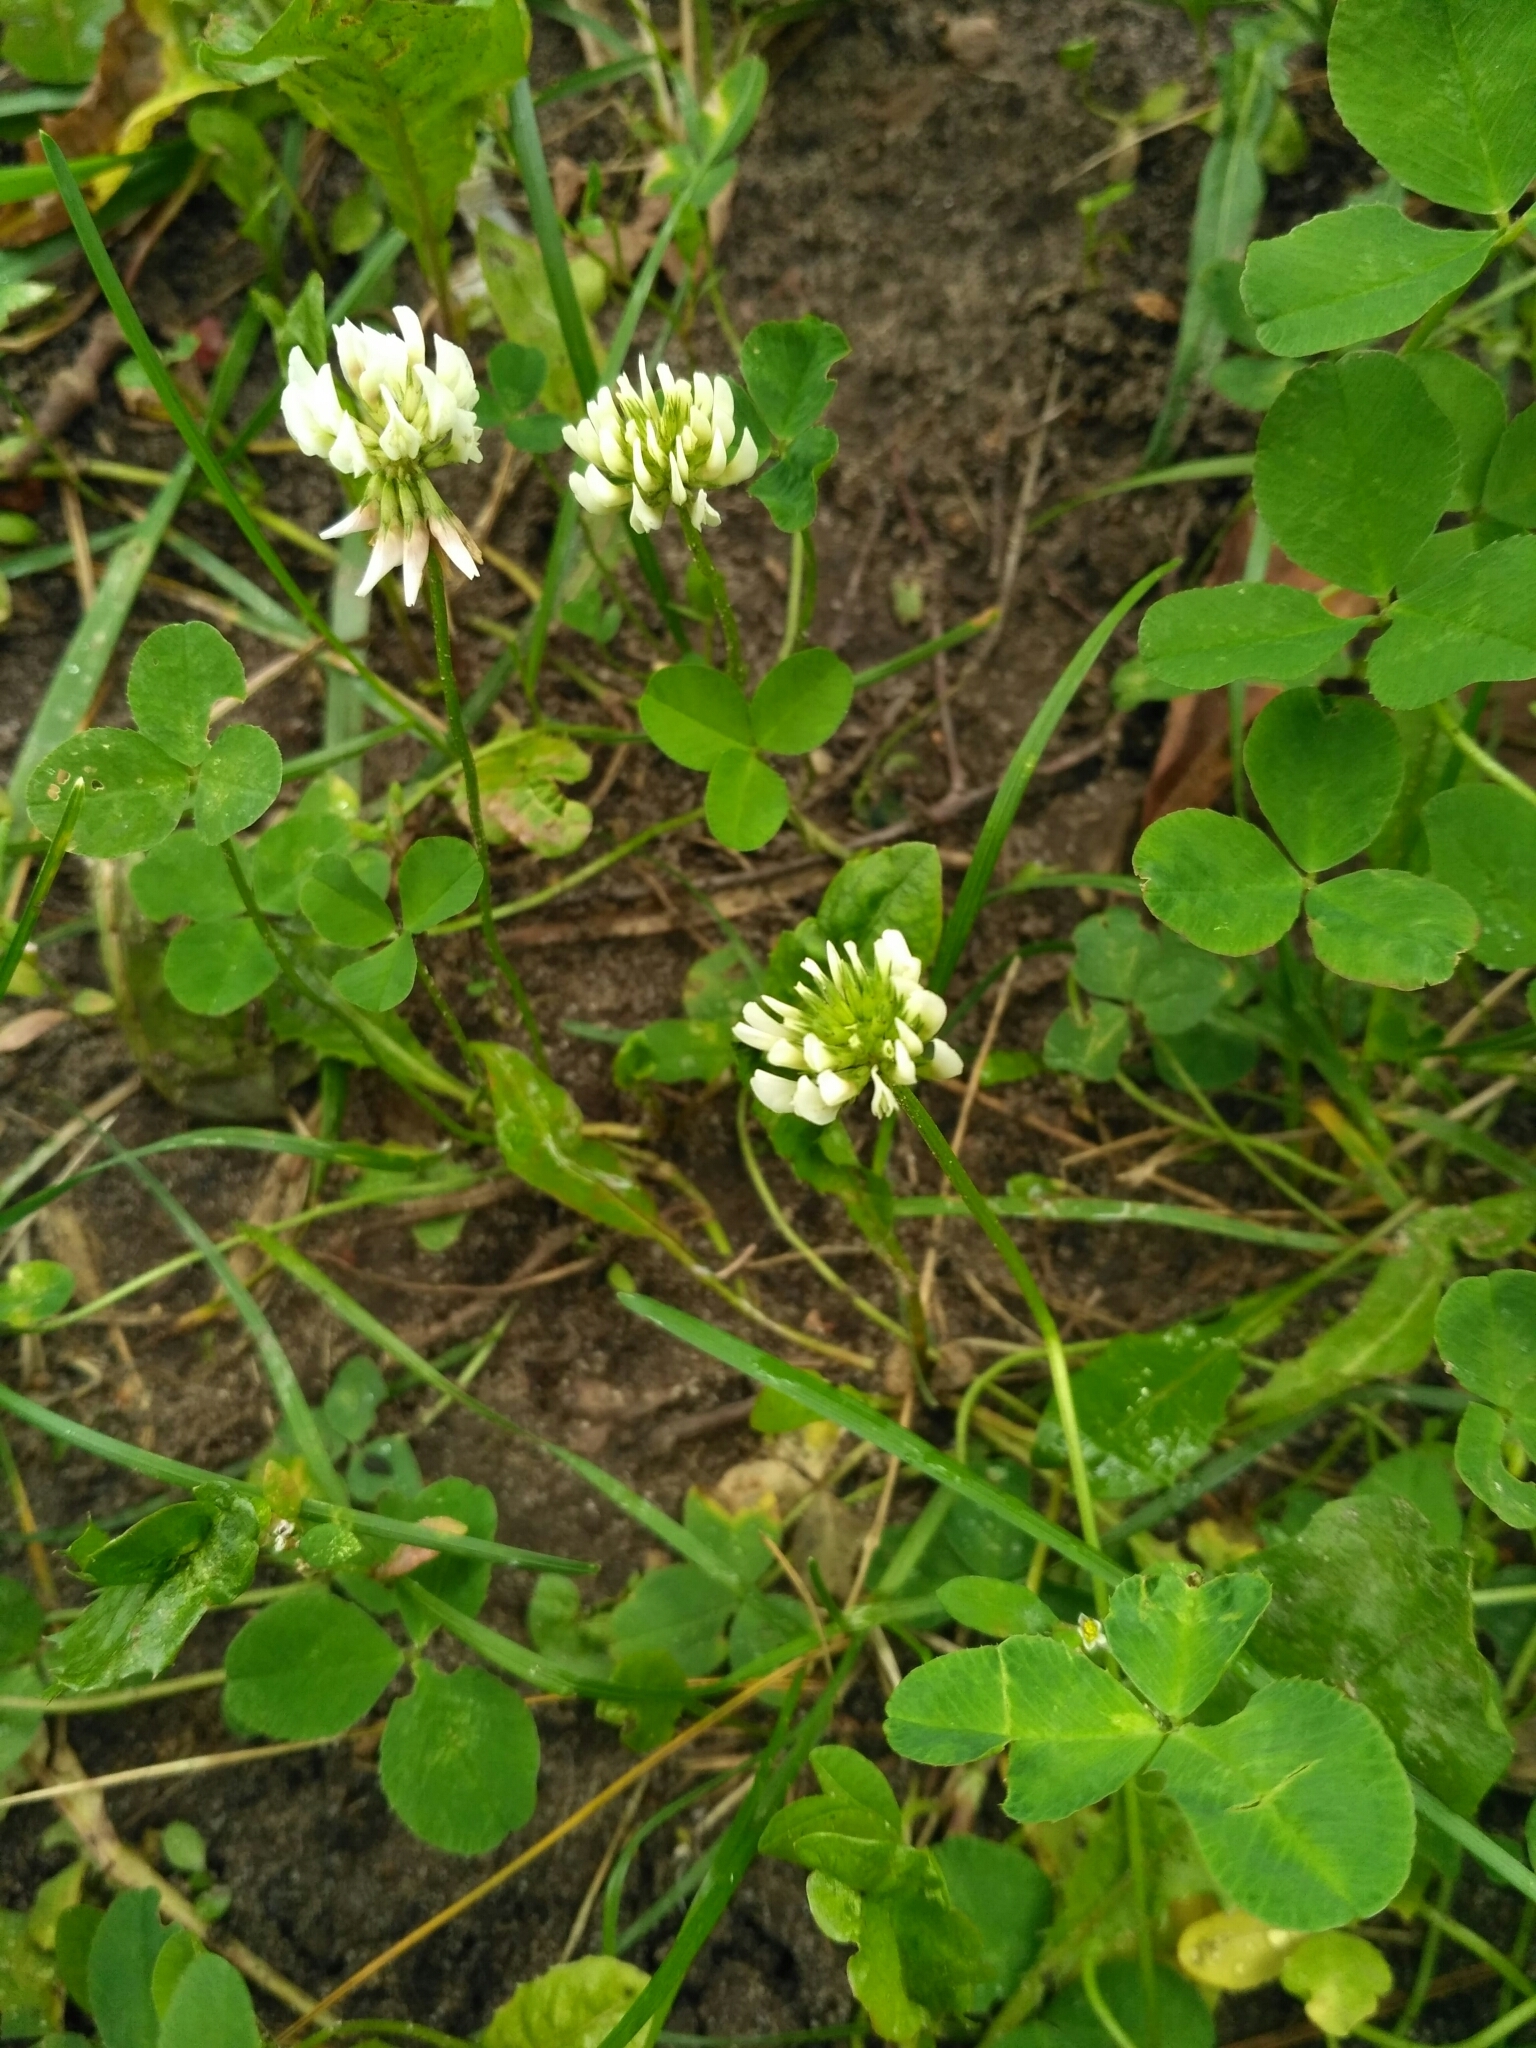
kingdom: Plantae
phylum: Tracheophyta
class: Magnoliopsida
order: Fabales
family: Fabaceae
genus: Trifolium
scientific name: Trifolium repens
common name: White clover
